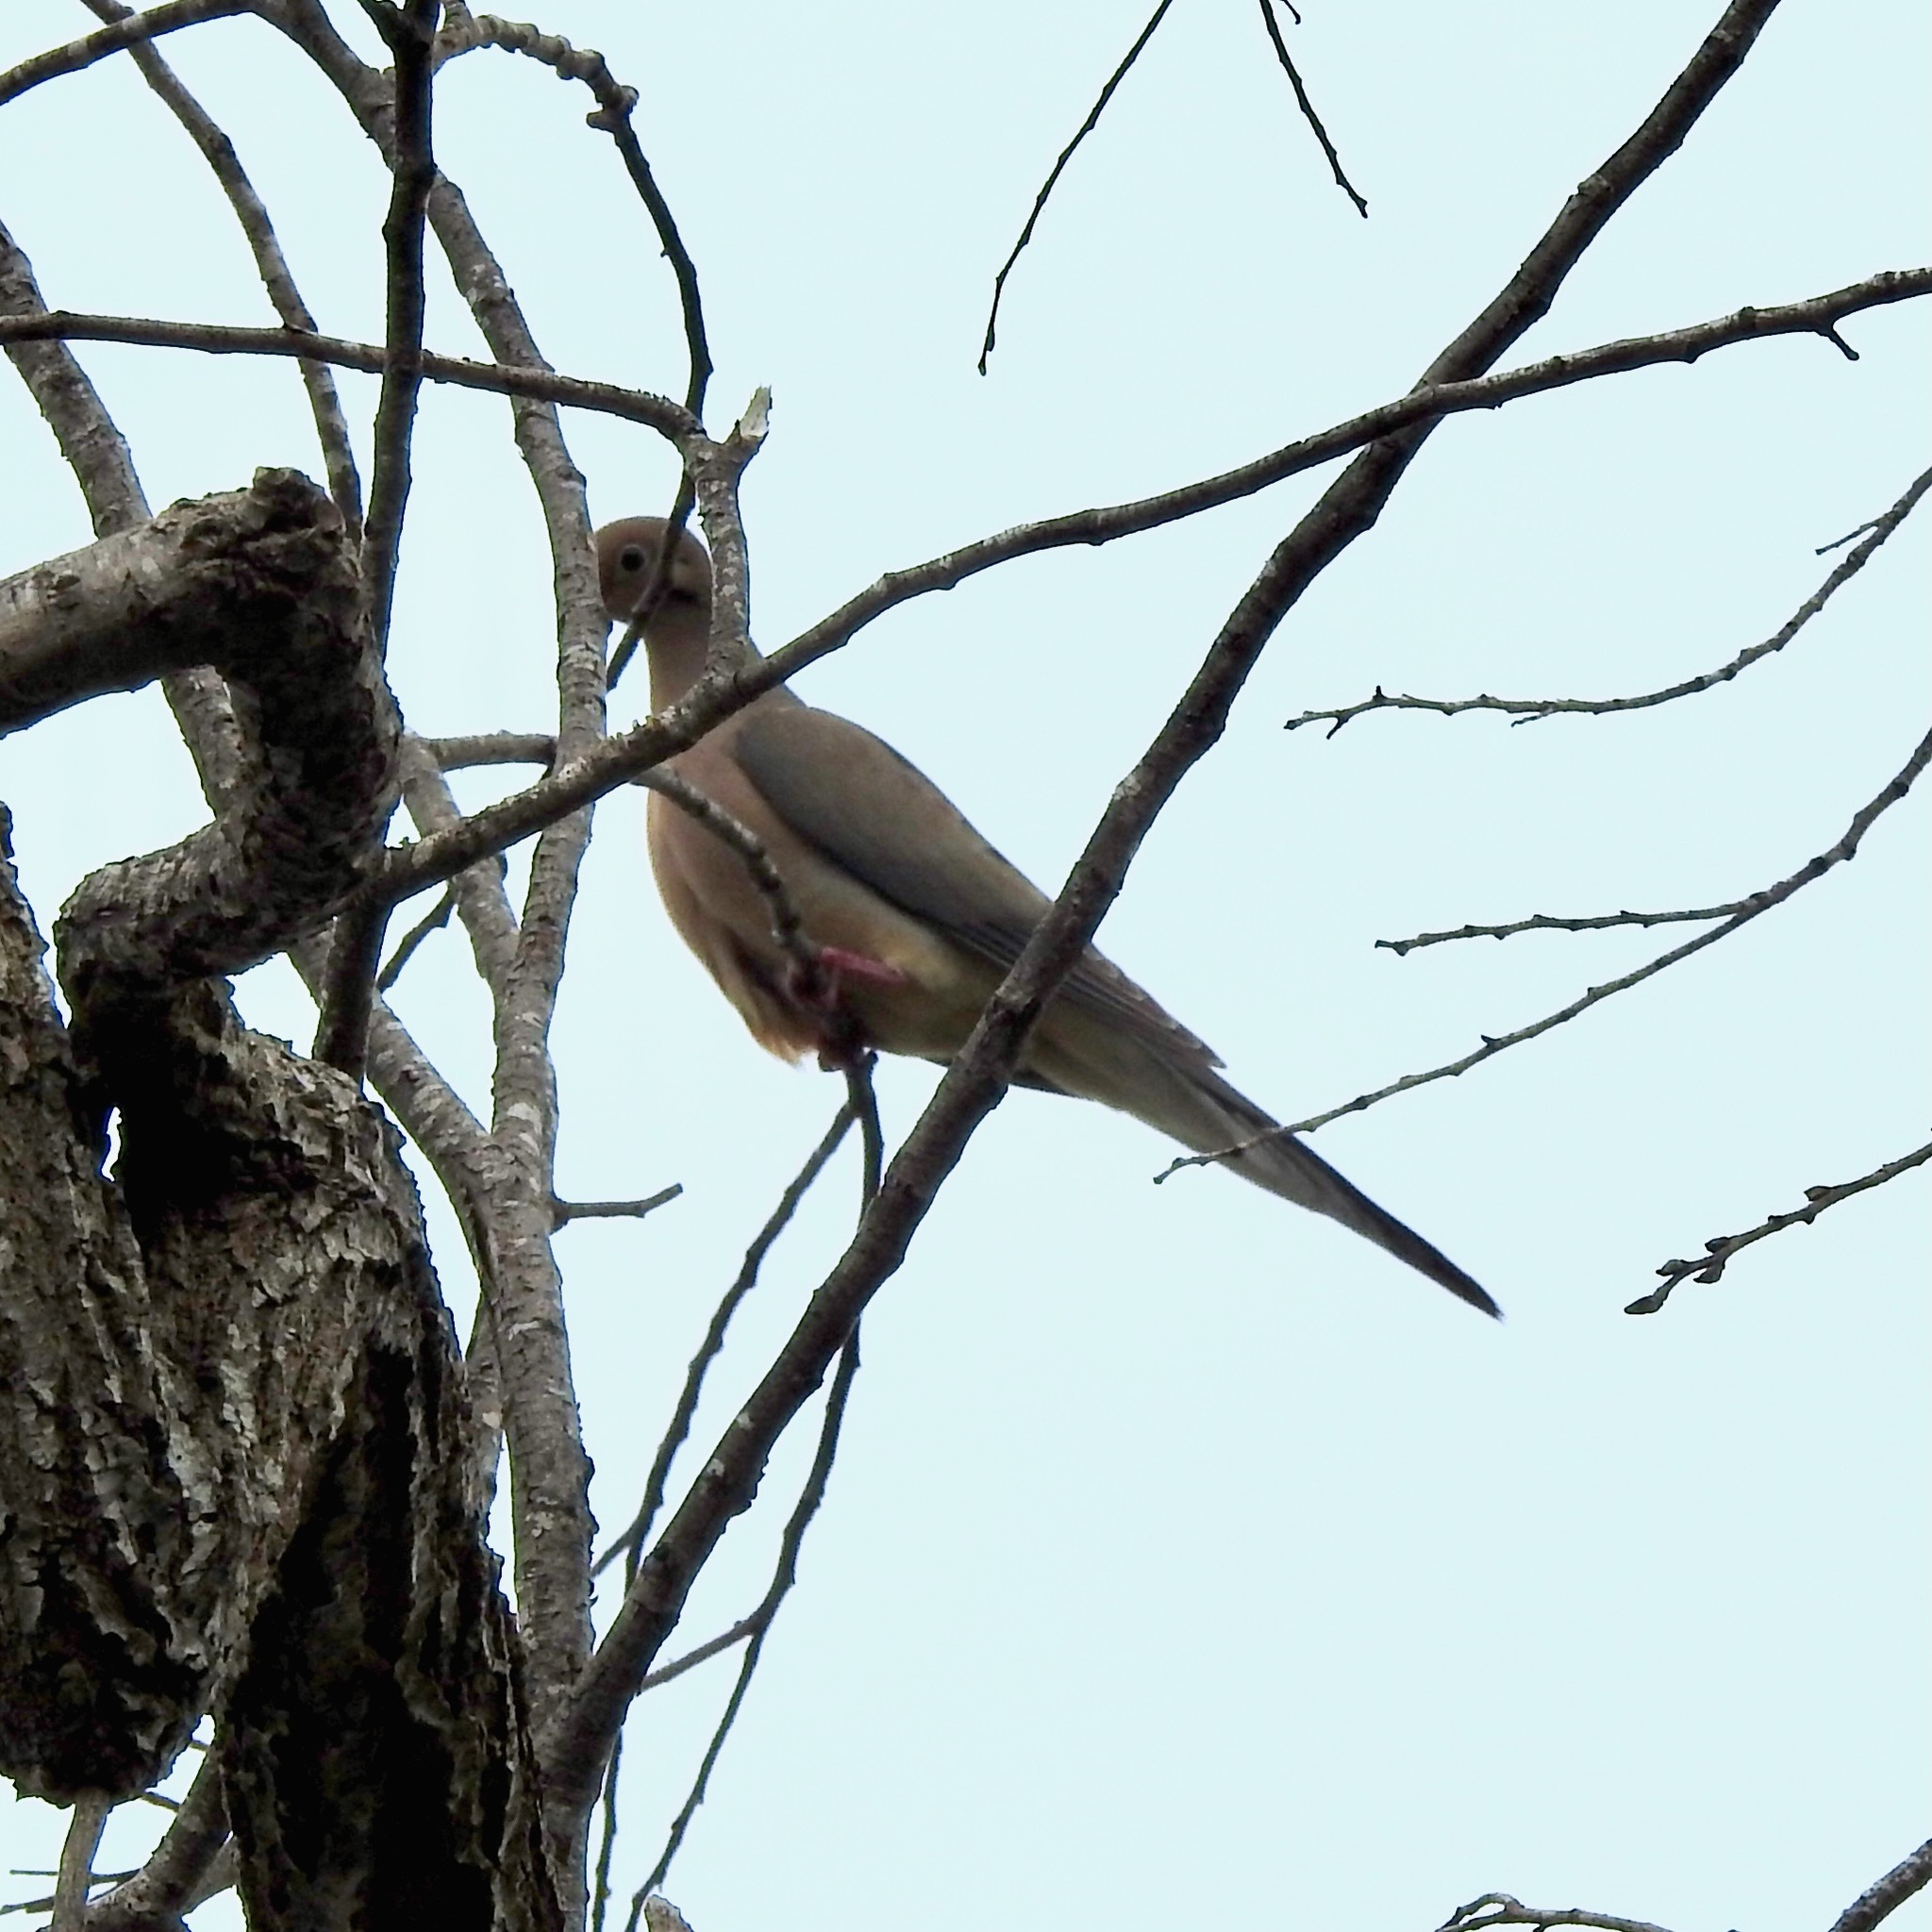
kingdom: Animalia
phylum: Chordata
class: Aves
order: Columbiformes
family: Columbidae
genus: Zenaida
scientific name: Zenaida macroura
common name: Mourning dove
